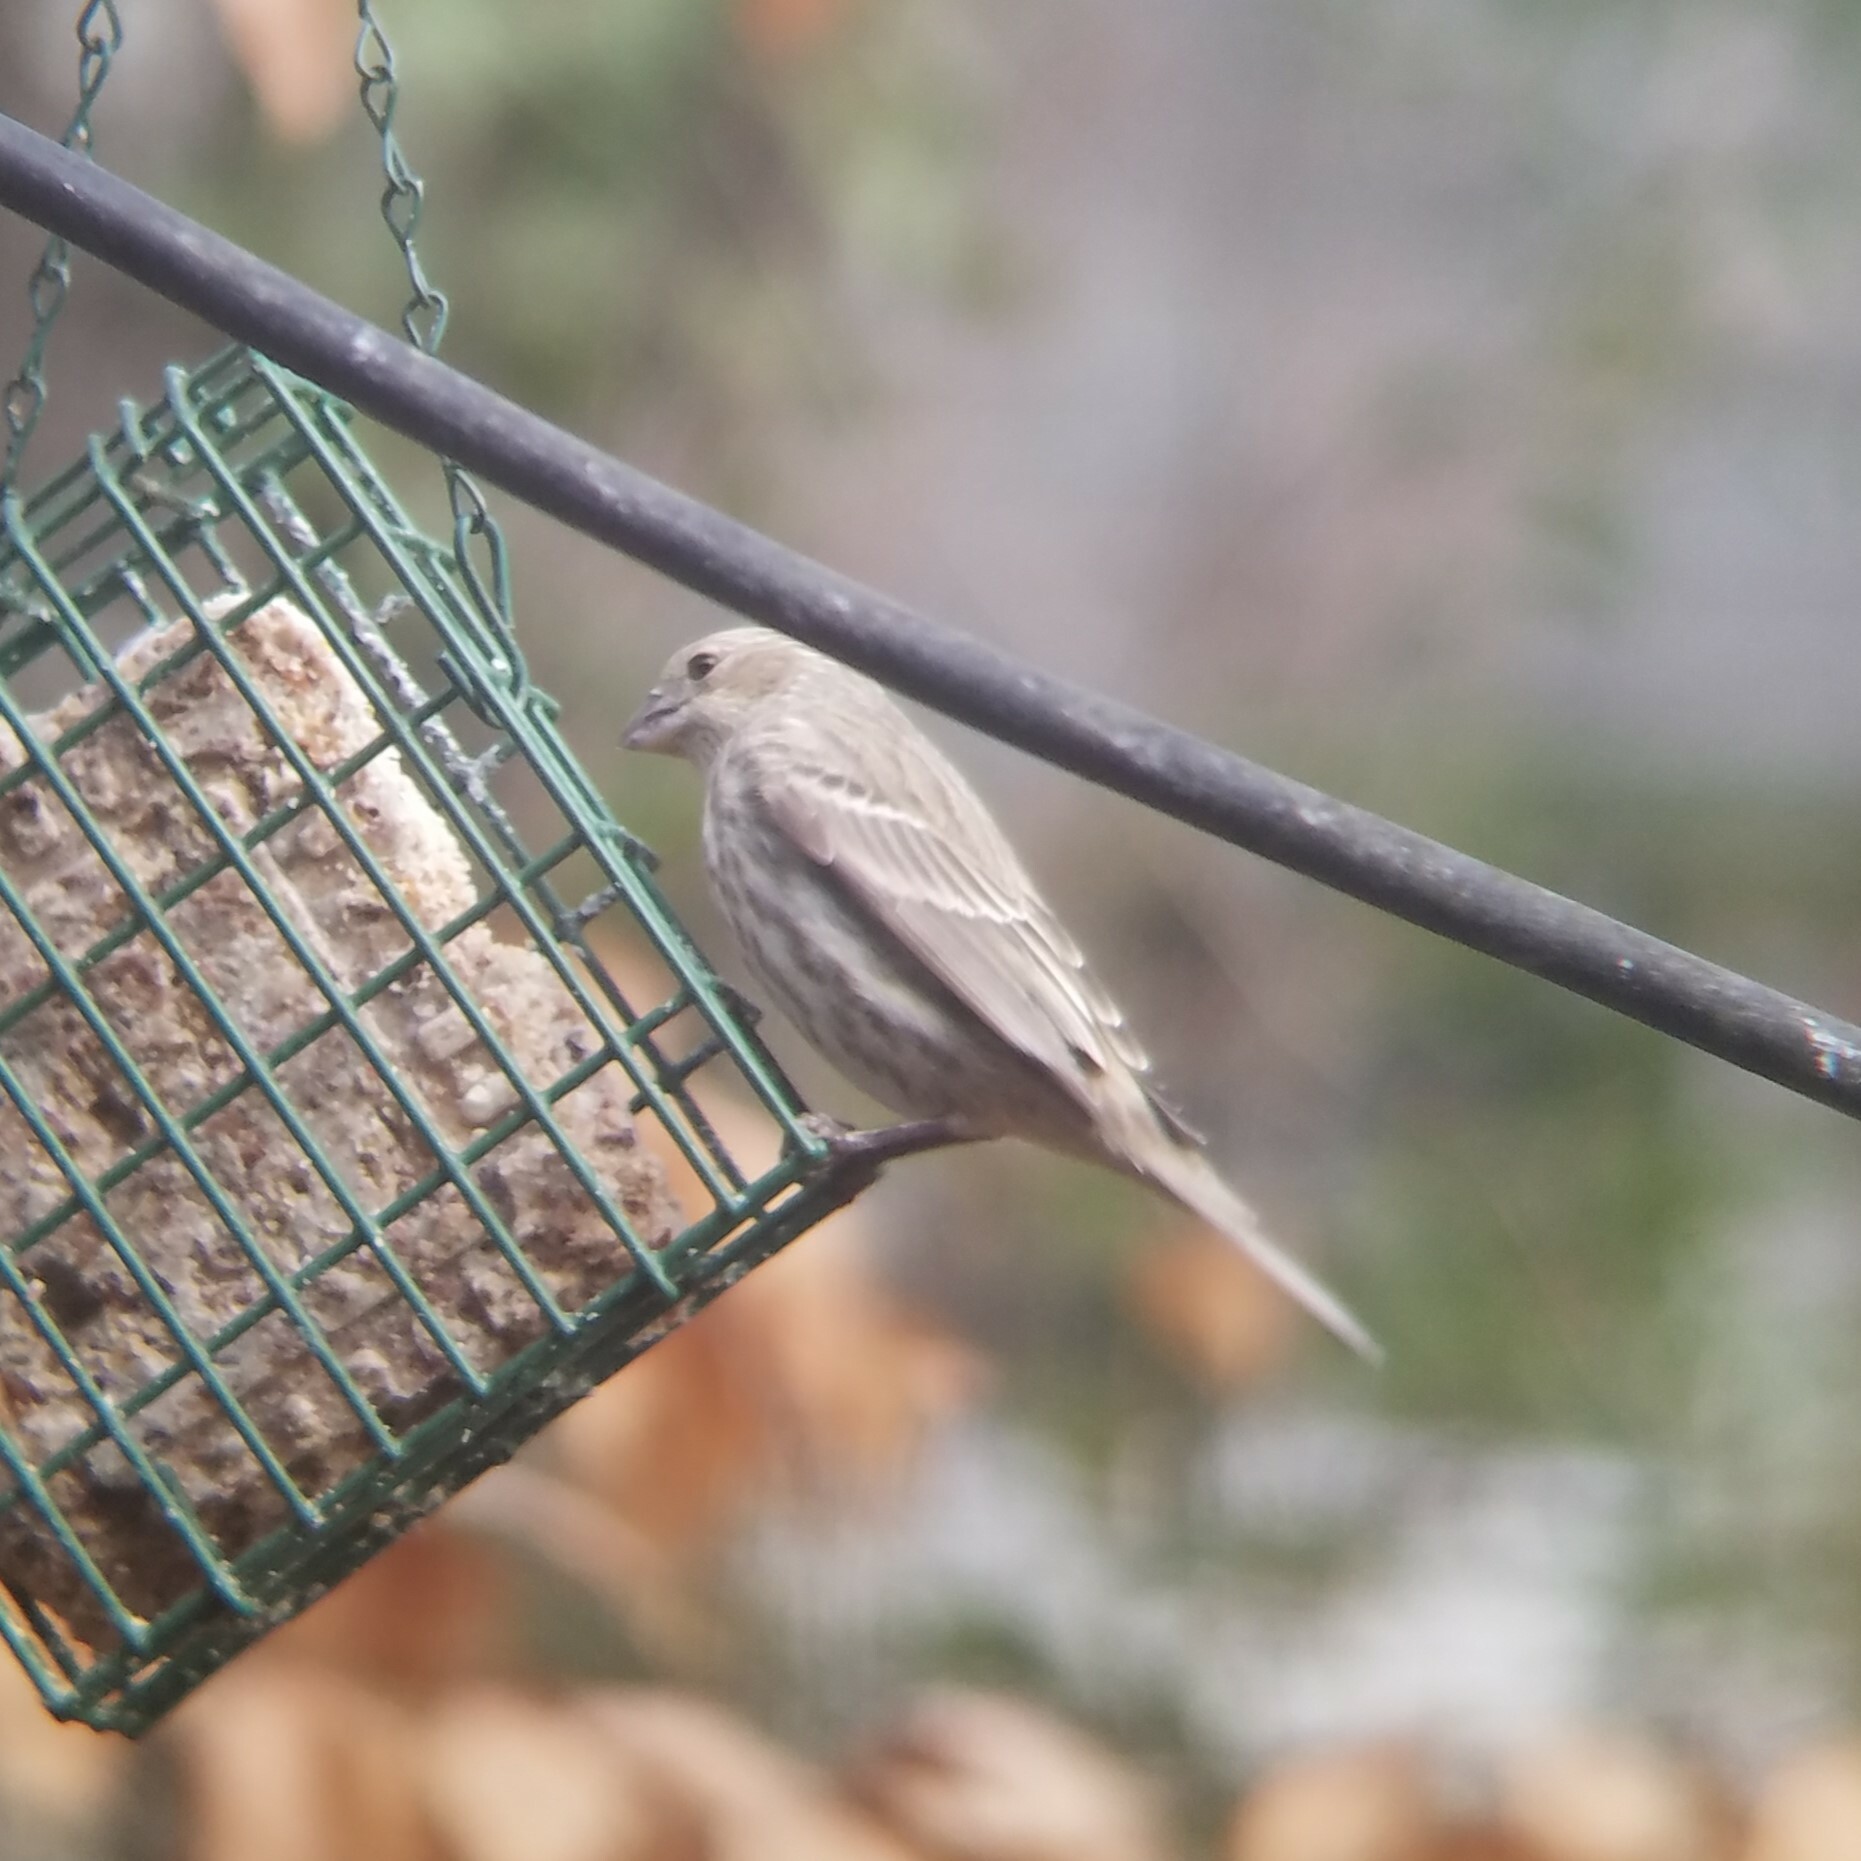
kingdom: Animalia
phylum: Chordata
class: Aves
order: Passeriformes
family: Fringillidae
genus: Haemorhous
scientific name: Haemorhous mexicanus
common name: House finch
